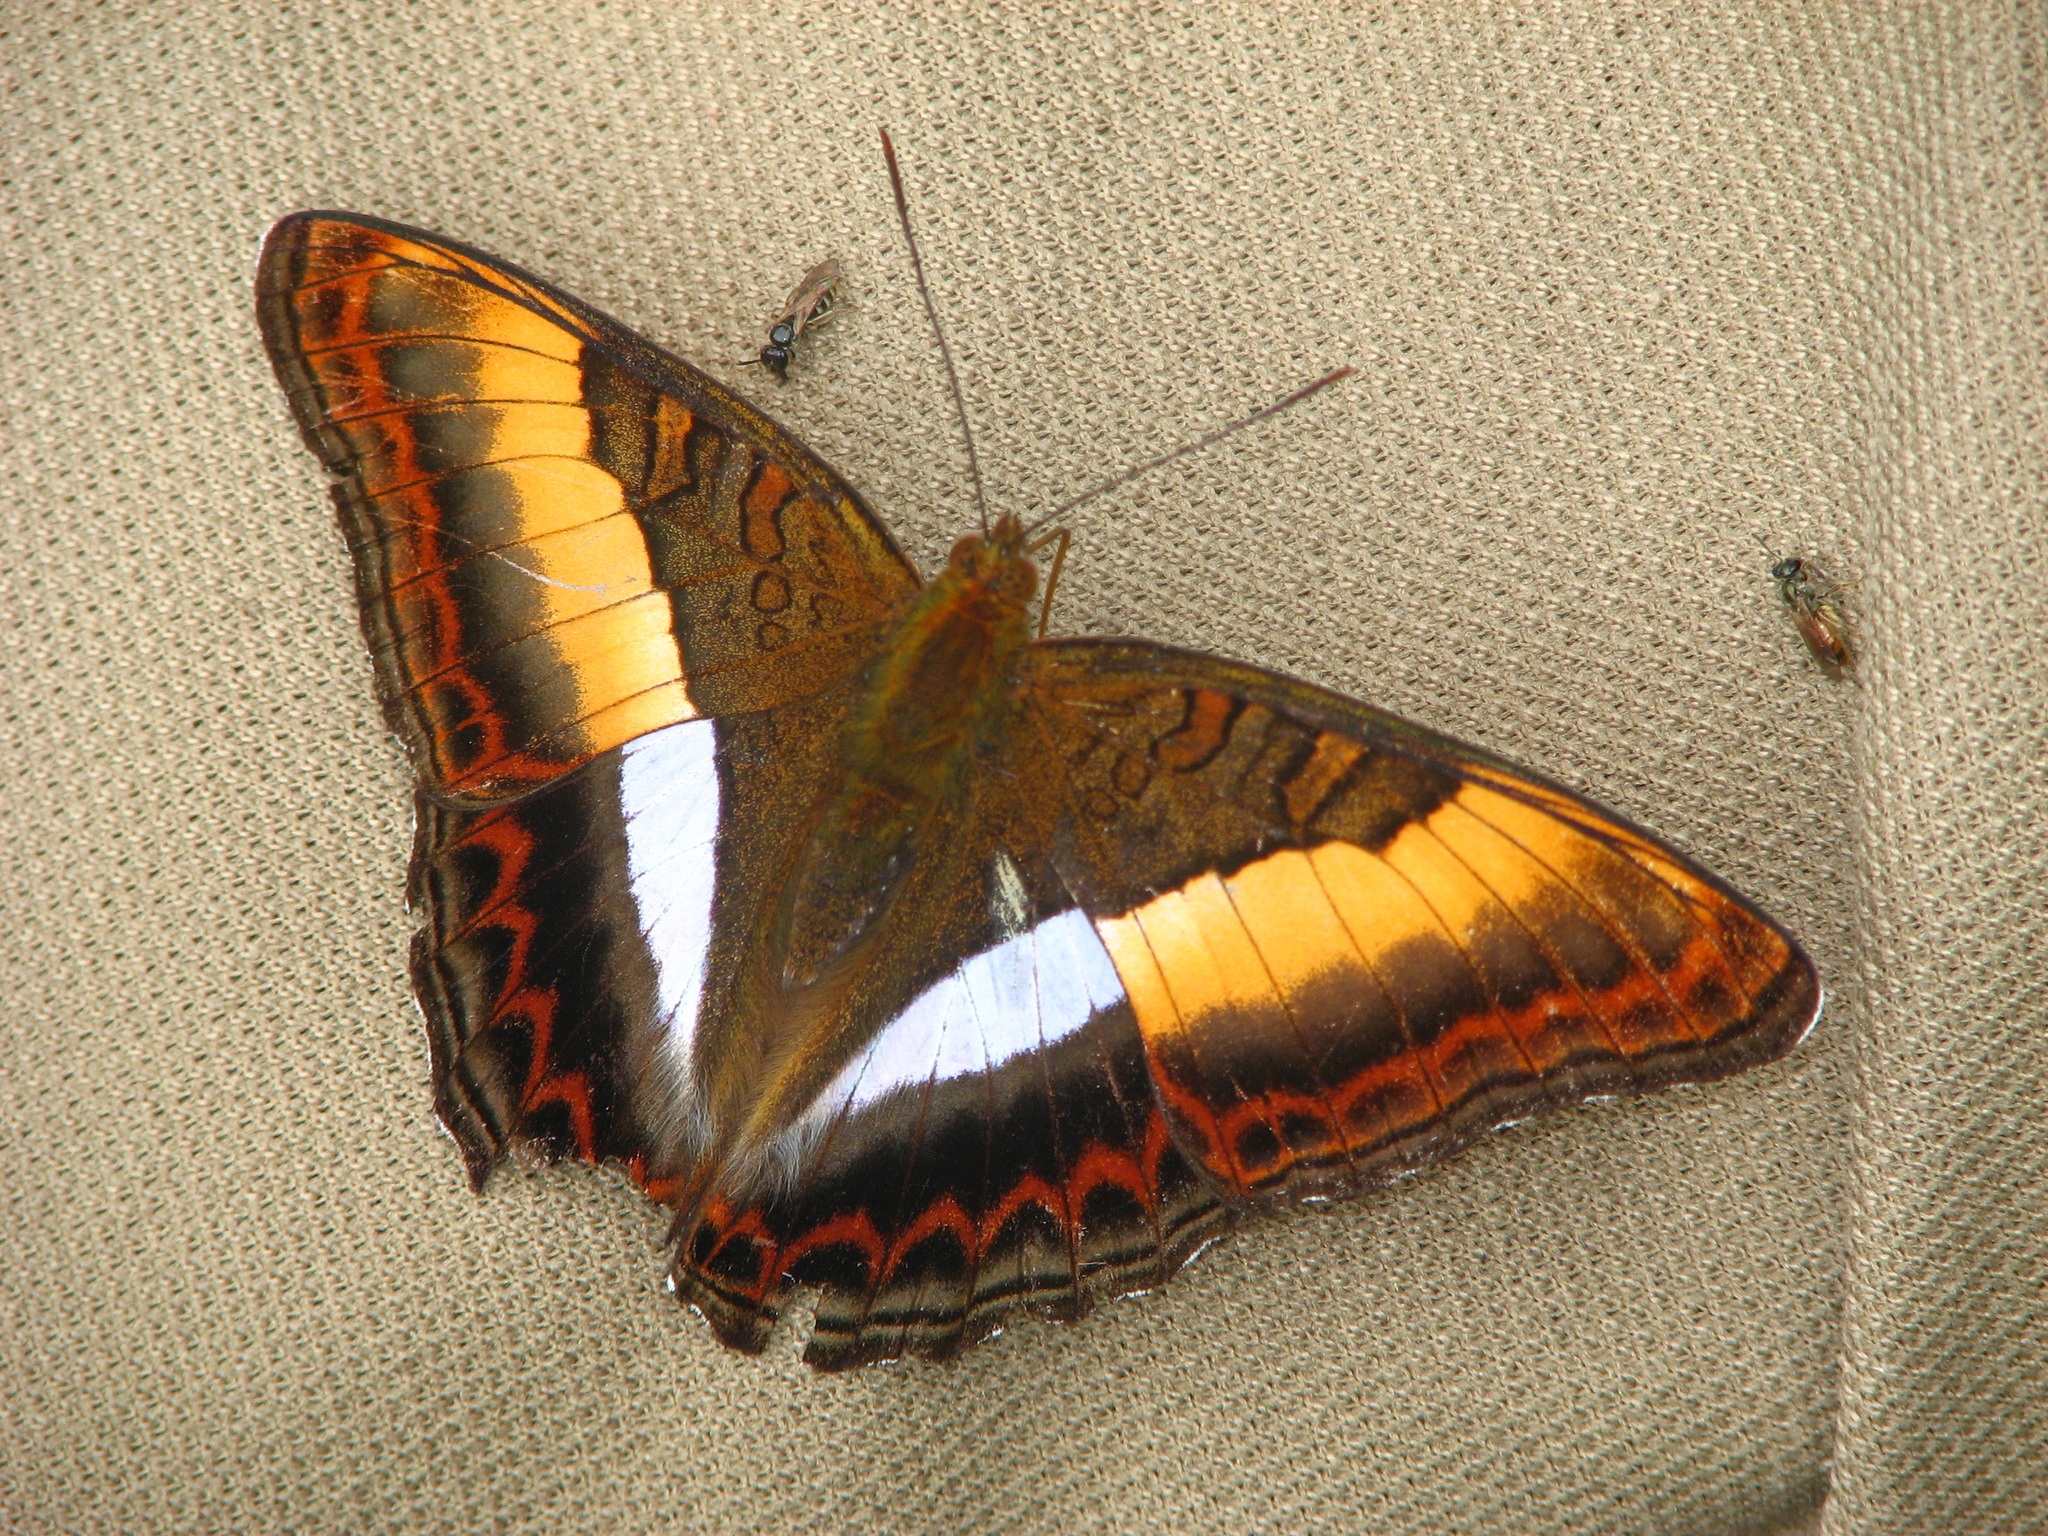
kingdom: Animalia
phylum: Arthropoda
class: Insecta
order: Lepidoptera
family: Nymphalidae
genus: Limenitis
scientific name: Limenitis Parasarpa zayla
